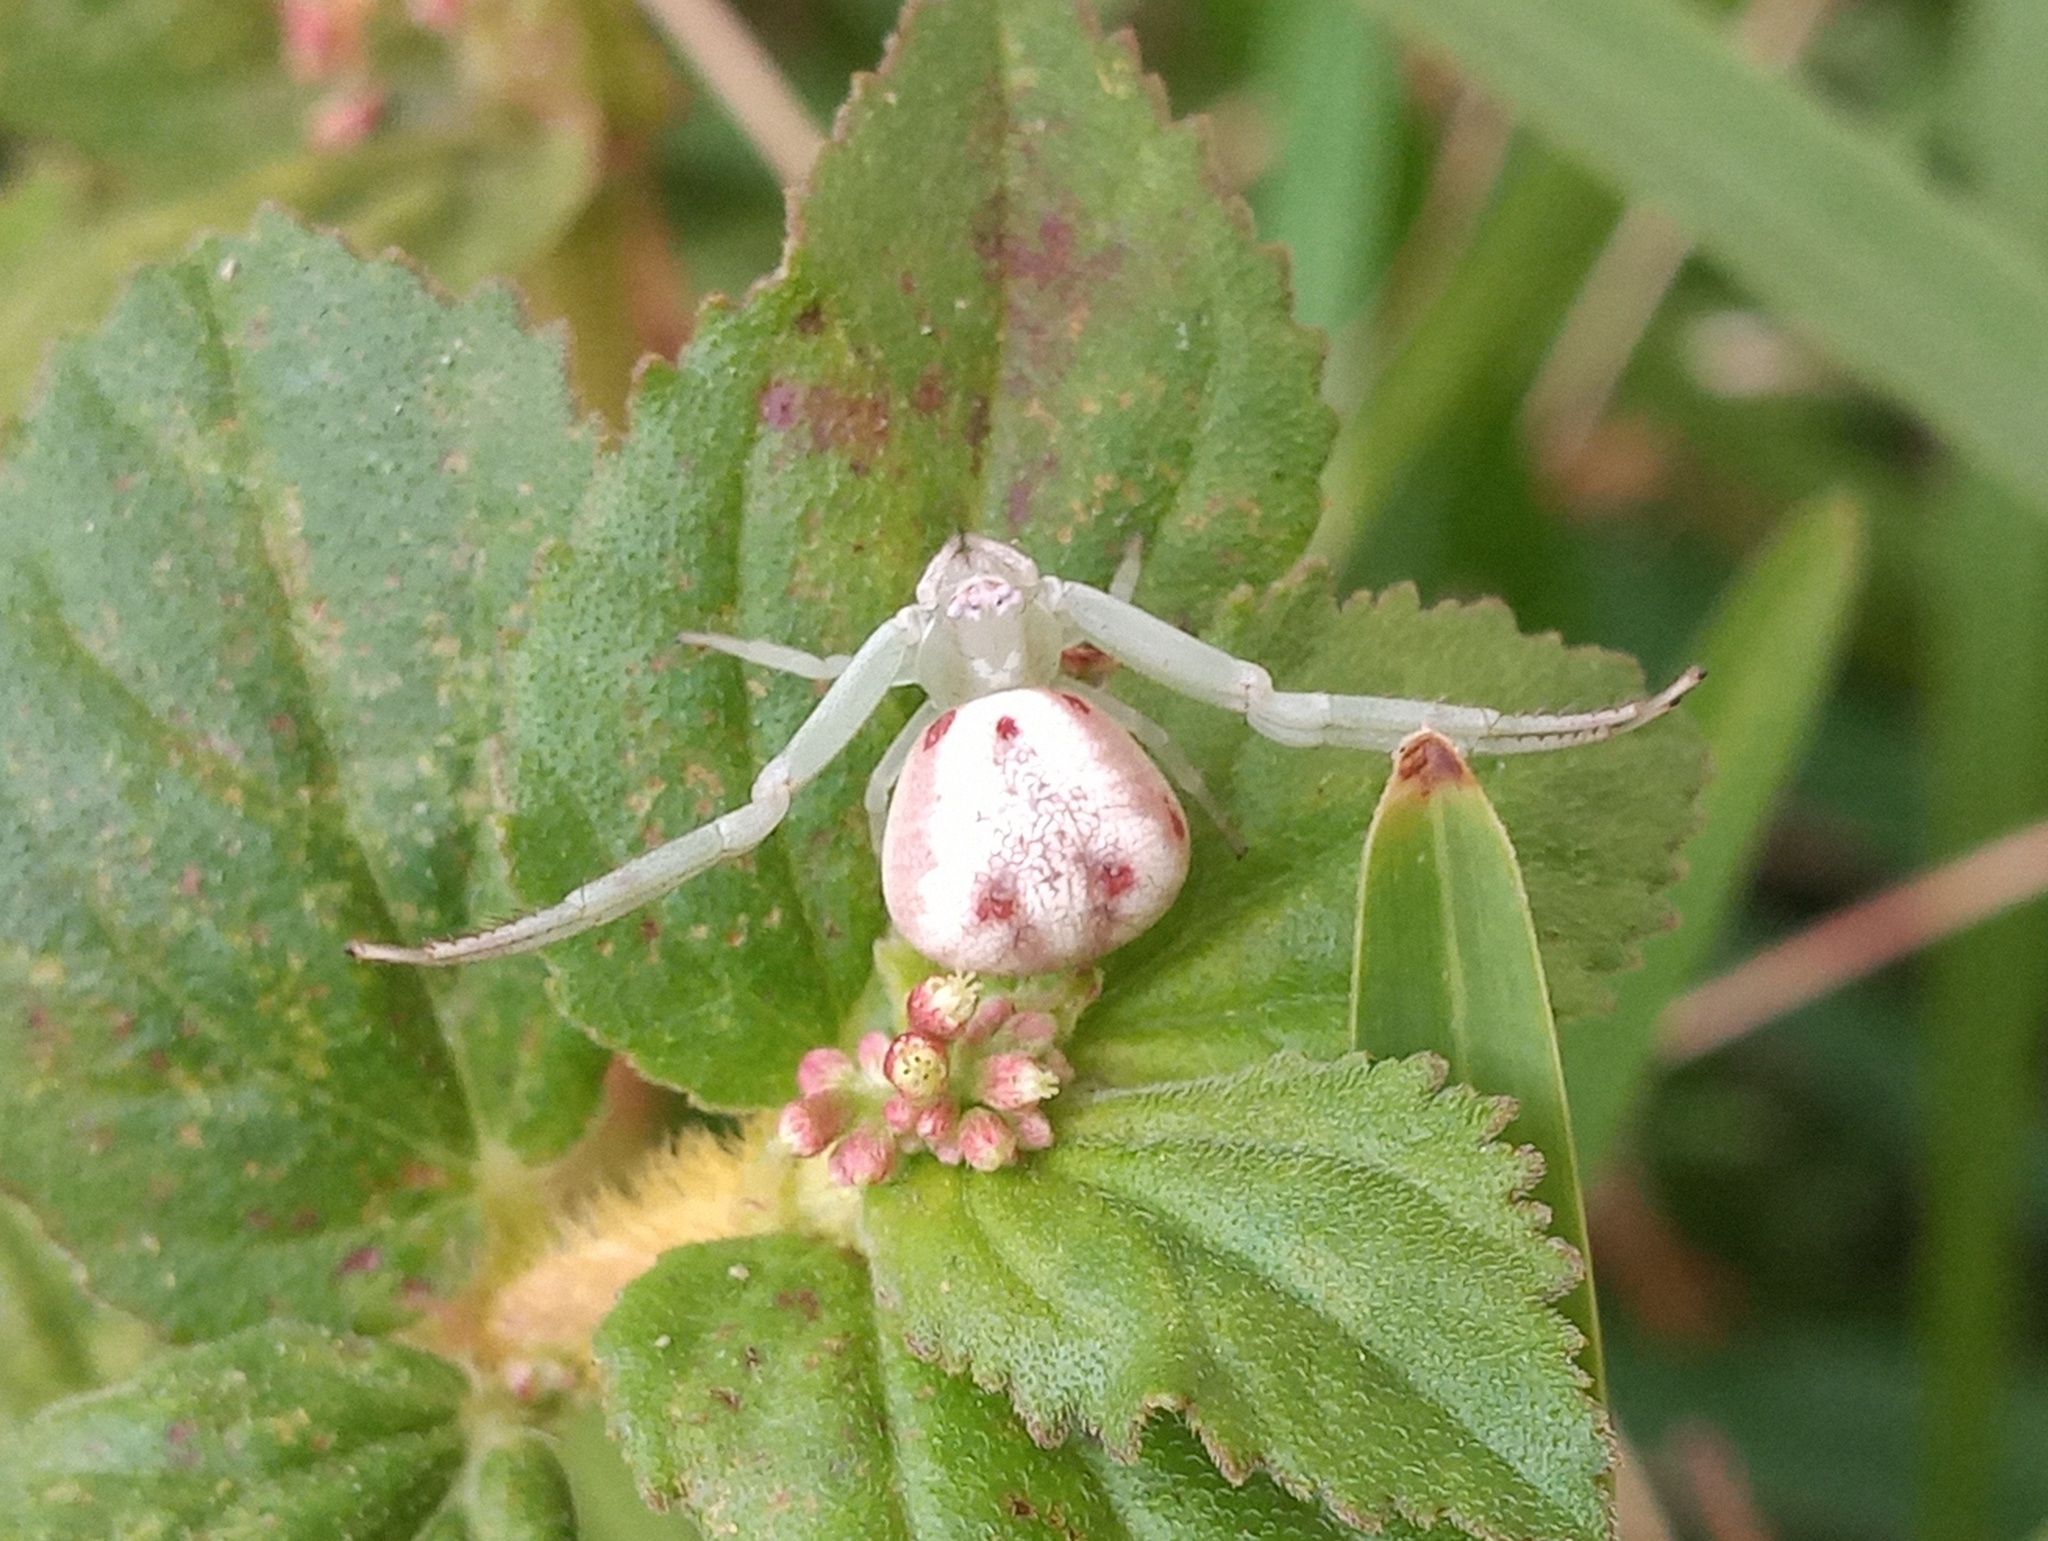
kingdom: Animalia
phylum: Arthropoda
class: Arachnida
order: Araneae
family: Thomisidae
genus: Misumenoides
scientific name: Misumenoides formosipes
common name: White-banded crab spider
